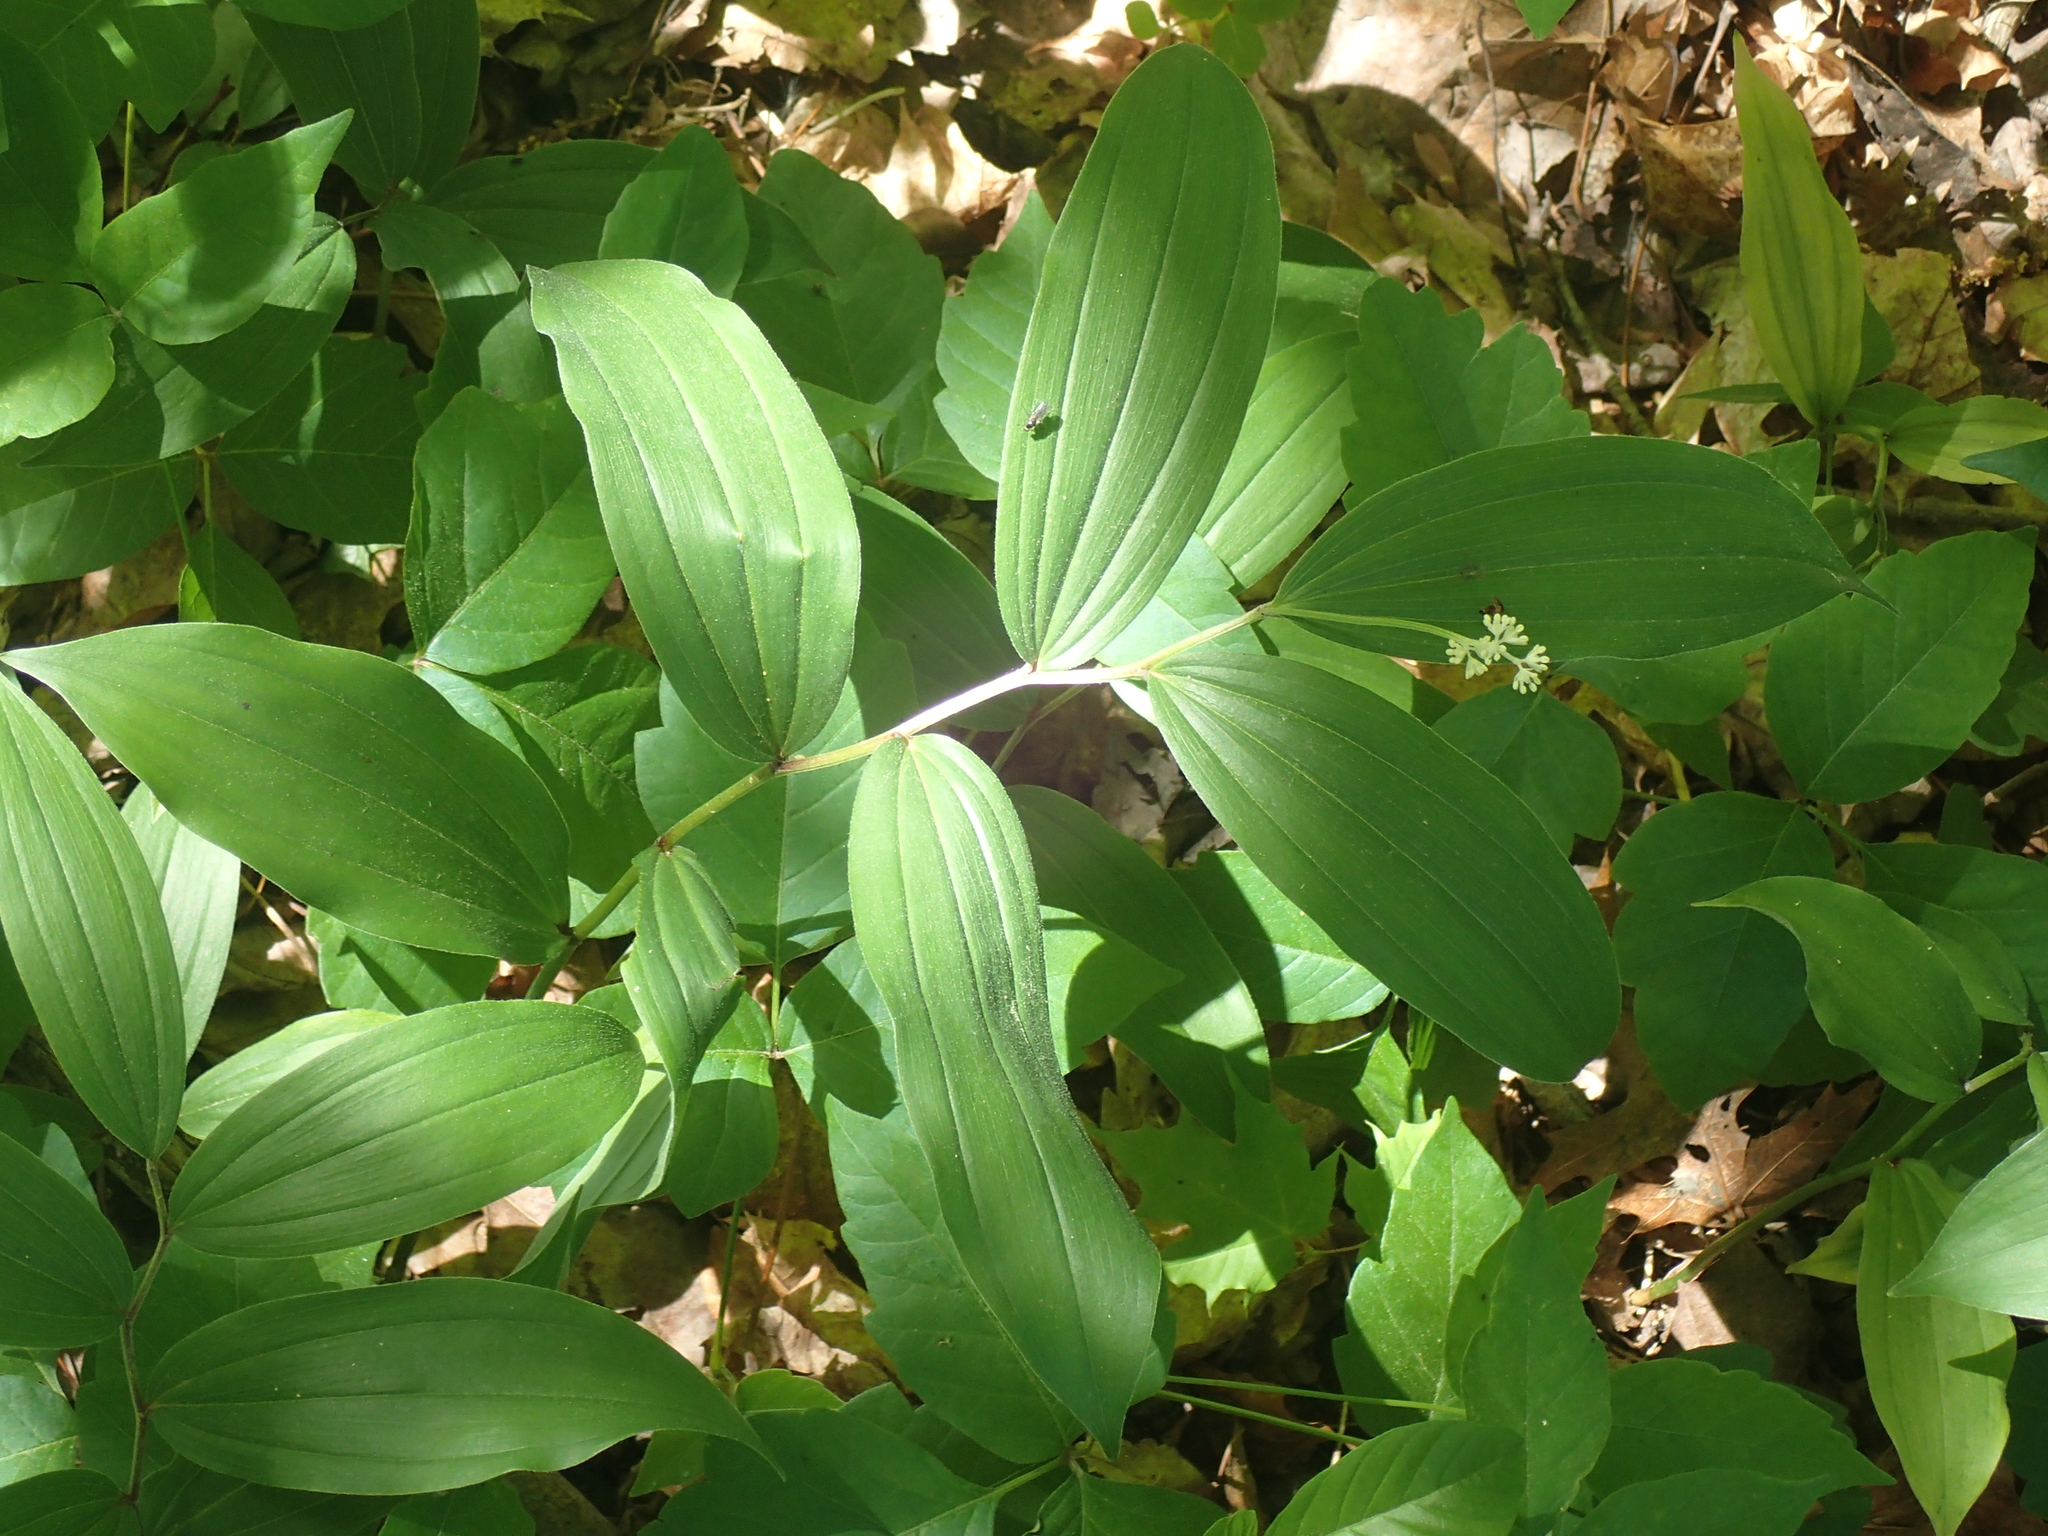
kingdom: Plantae
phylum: Tracheophyta
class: Liliopsida
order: Asparagales
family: Asparagaceae
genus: Maianthemum
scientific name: Maianthemum racemosum
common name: False spikenard
